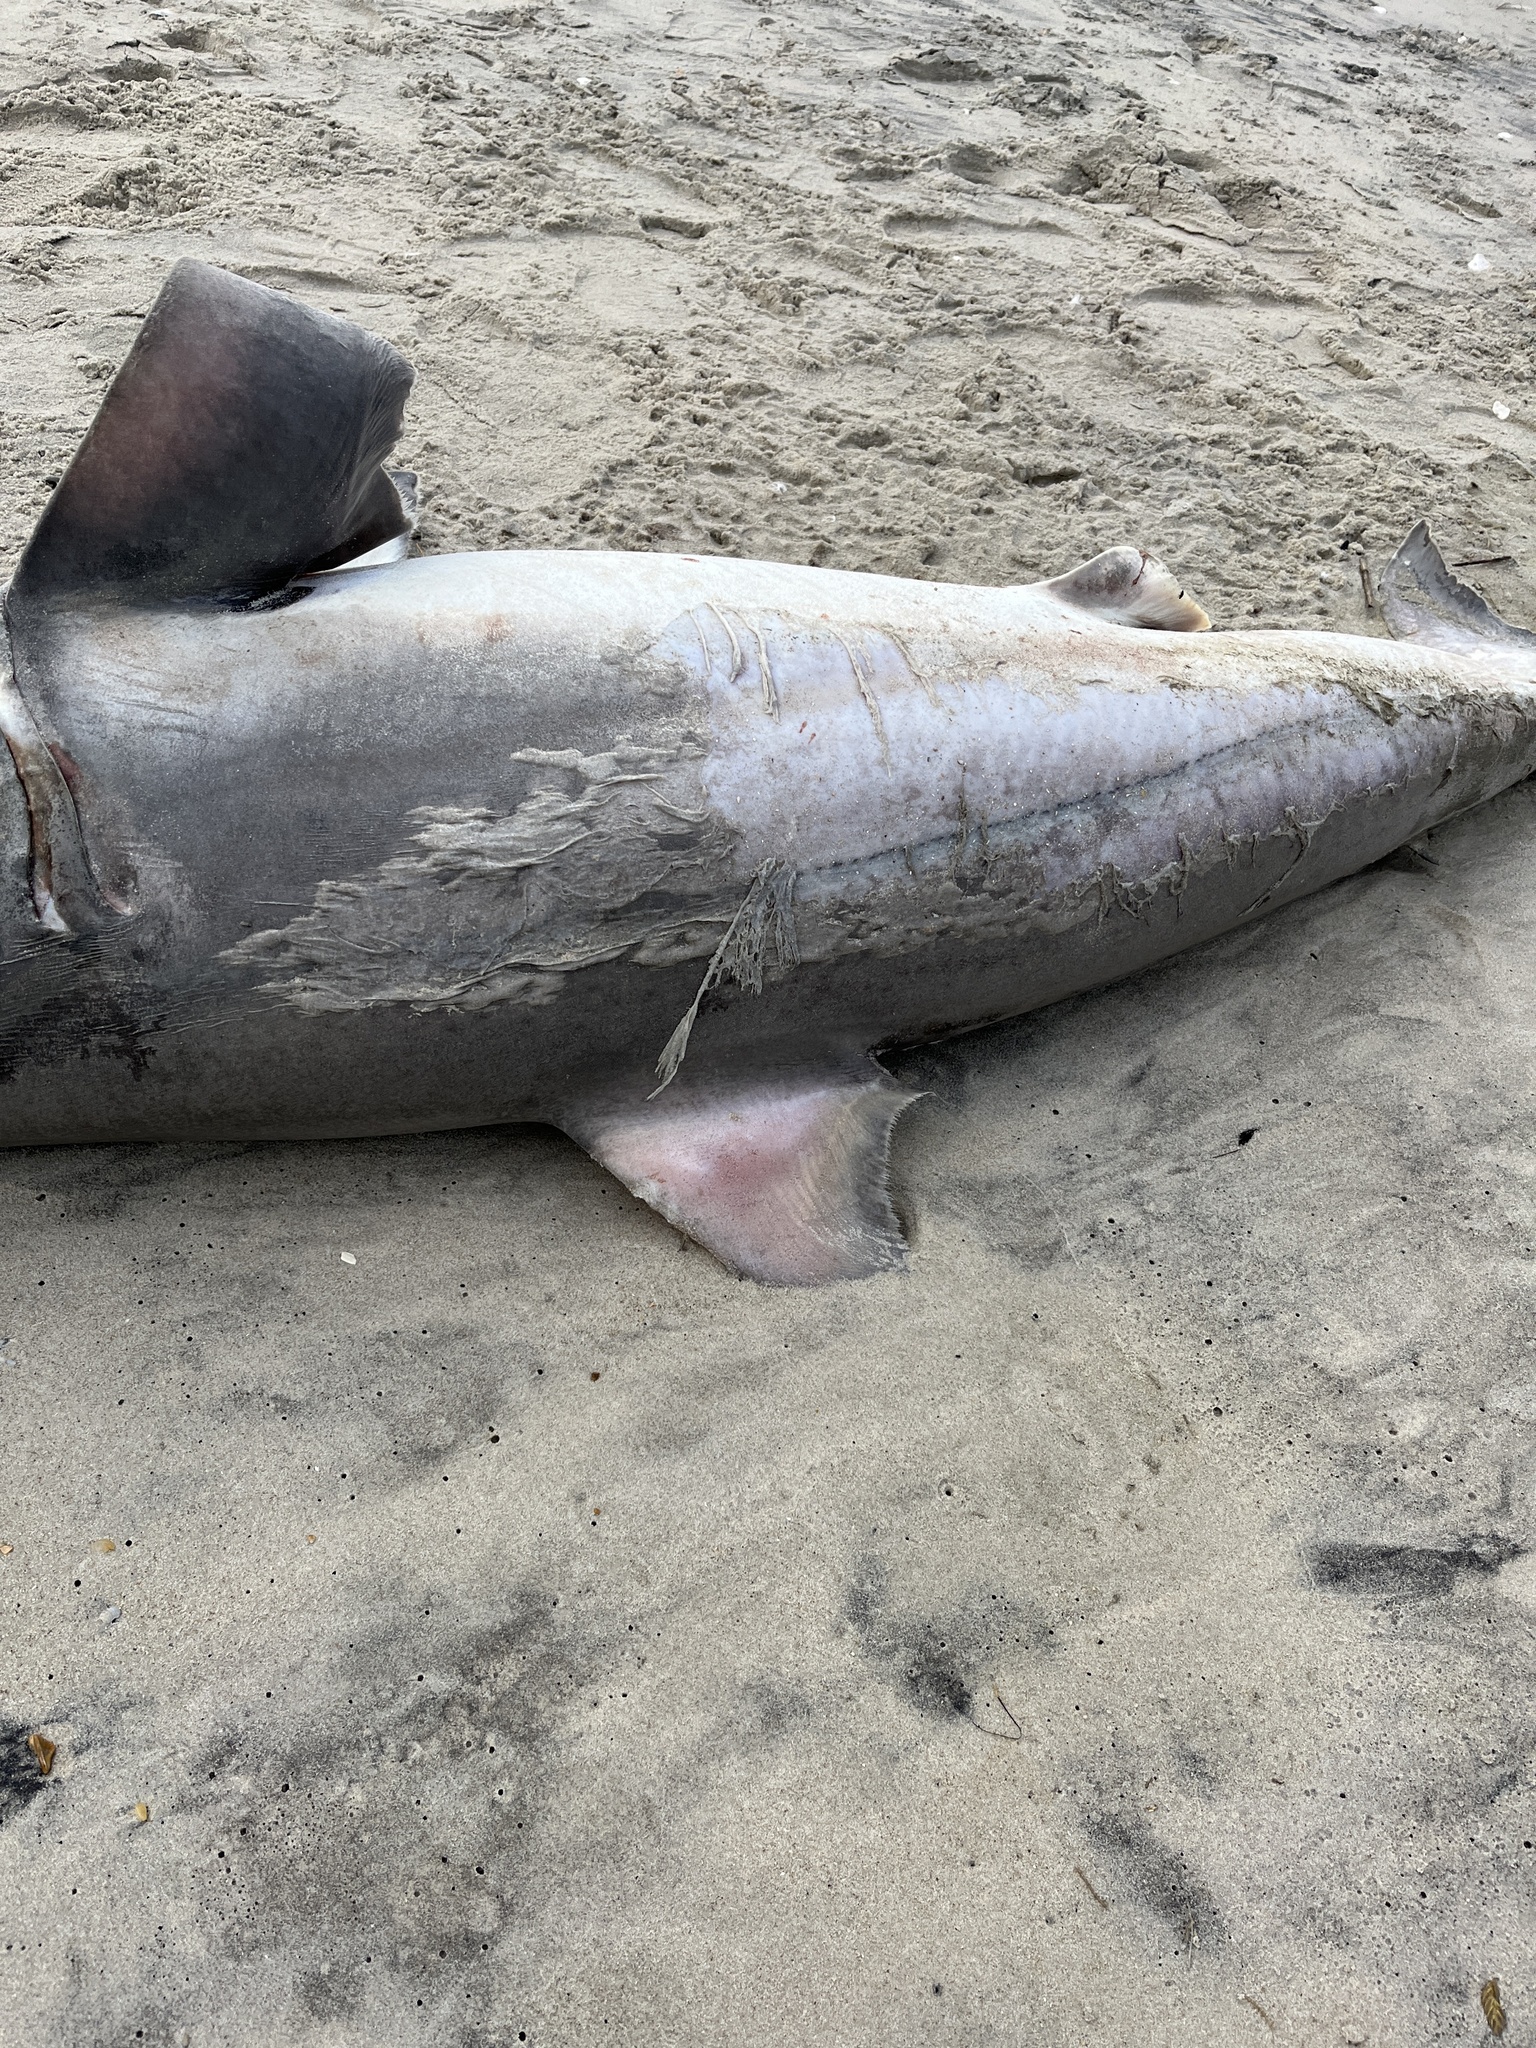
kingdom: Animalia
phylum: Chordata
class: Elasmobranchii
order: Lamniformes
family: Lamnidae
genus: Carcharodon
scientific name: Carcharodon carcharias
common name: Great white shark
